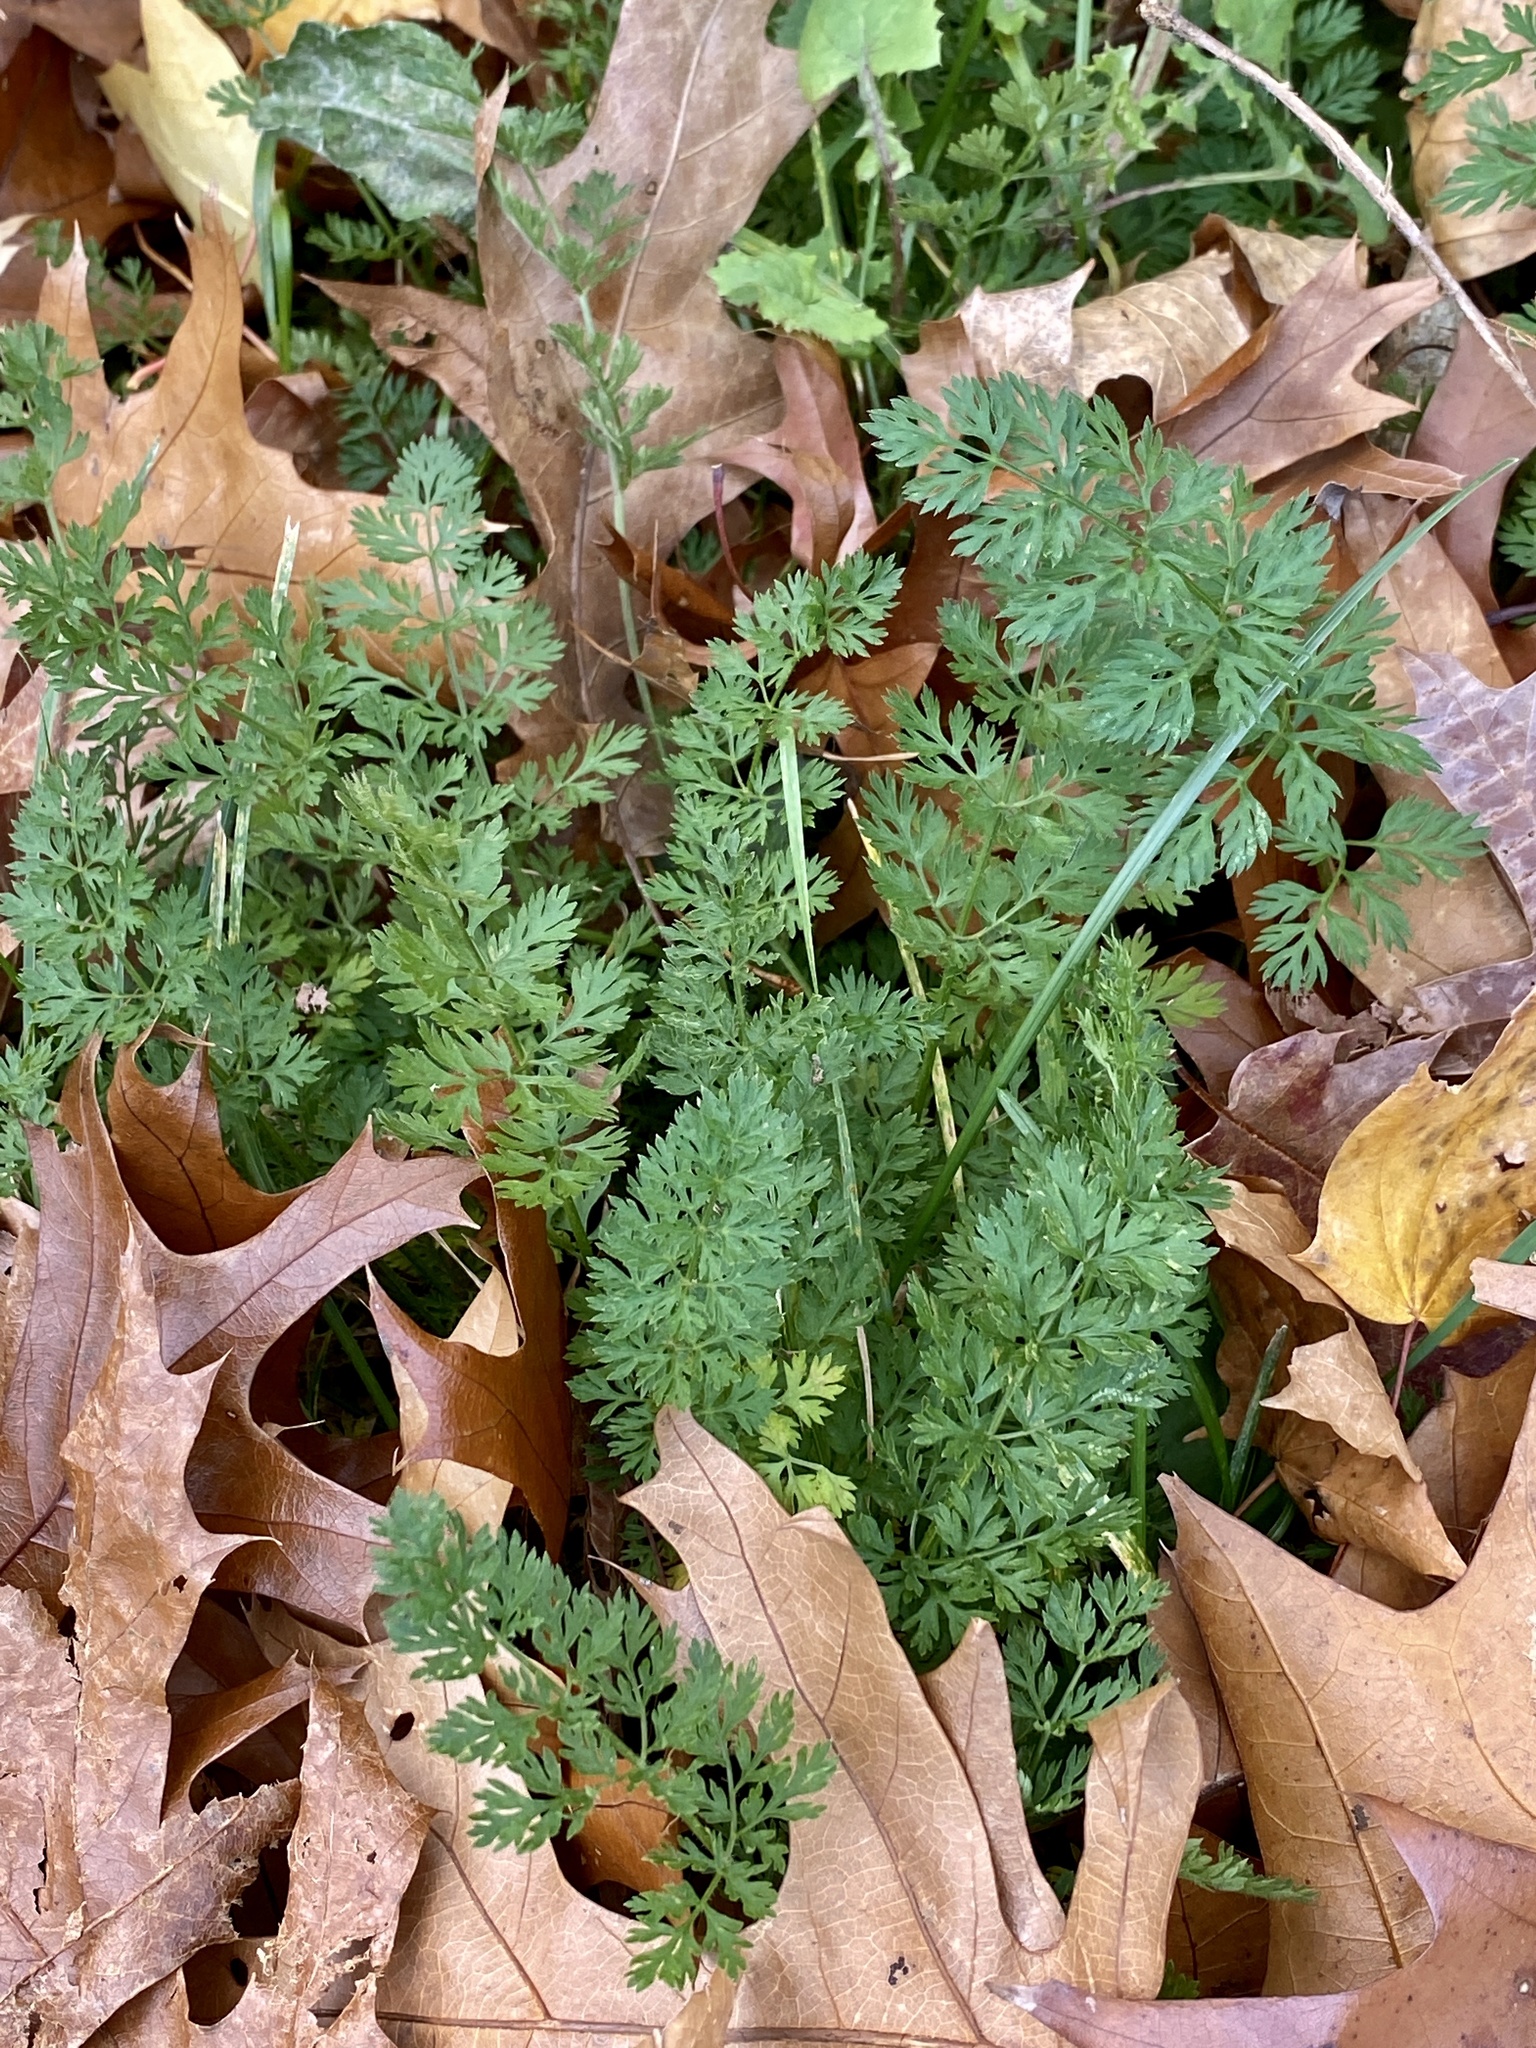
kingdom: Plantae
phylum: Tracheophyta
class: Magnoliopsida
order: Apiales
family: Apiaceae
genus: Daucus
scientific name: Daucus carota
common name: Wild carrot
